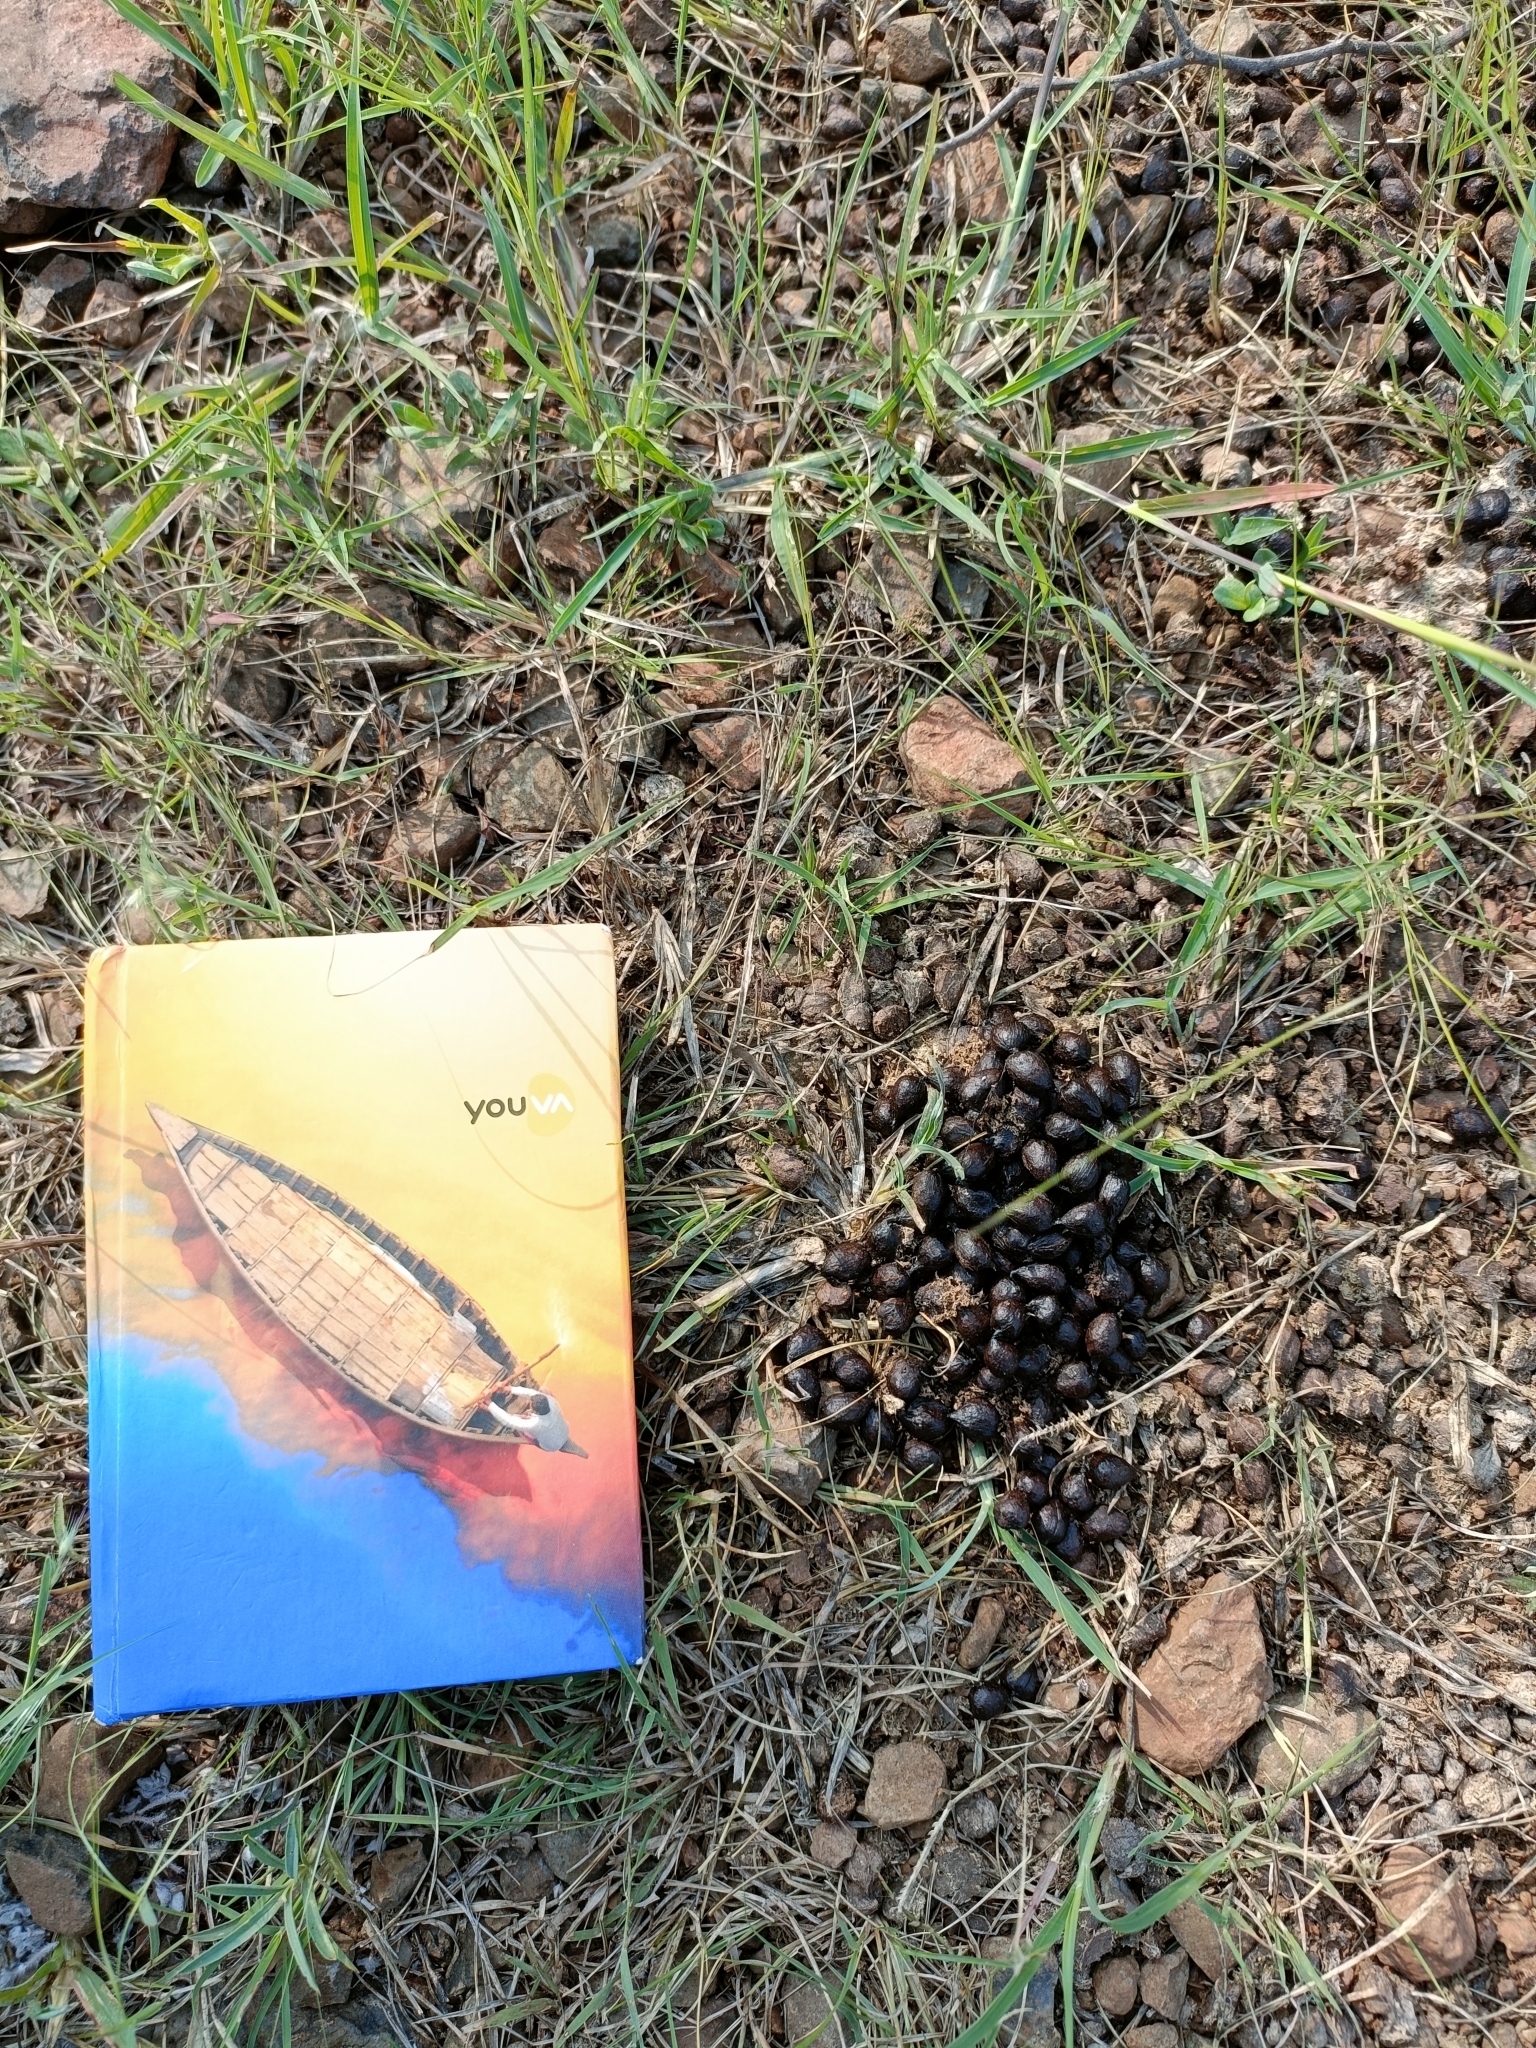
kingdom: Animalia
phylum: Chordata
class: Mammalia
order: Artiodactyla
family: Bovidae
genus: Gazella
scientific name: Gazella bennettii
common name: Indian gazelle
